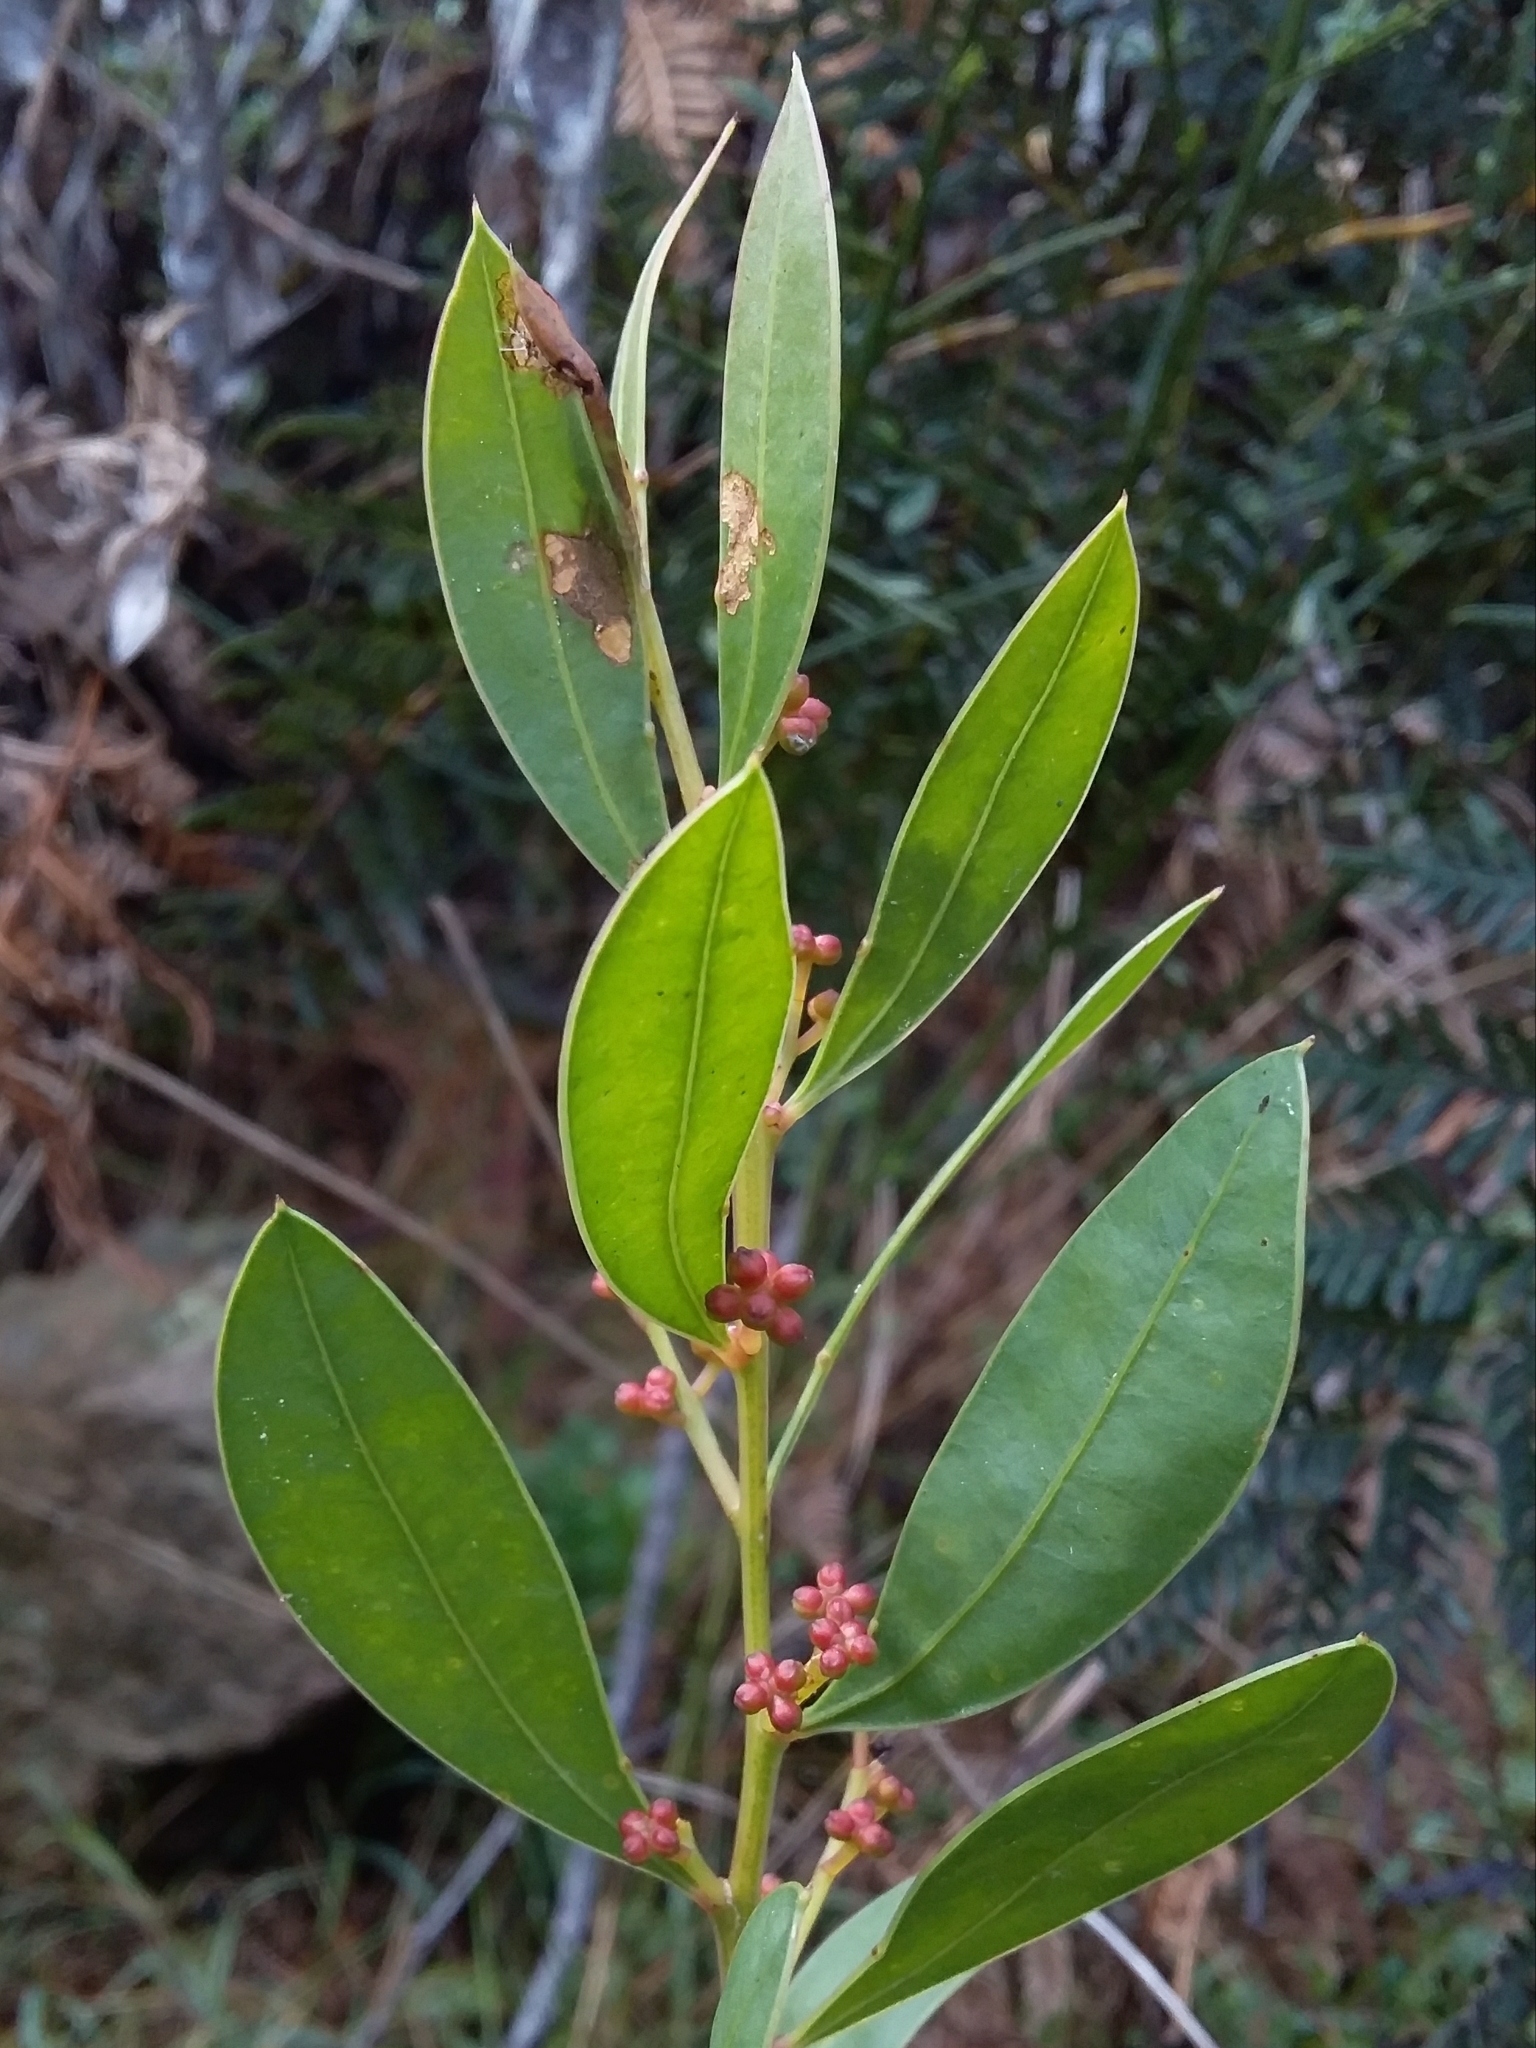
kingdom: Plantae
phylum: Tracheophyta
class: Magnoliopsida
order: Fabales
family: Fabaceae
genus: Acacia
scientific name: Acacia myrtifolia
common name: Myrtle wattle
